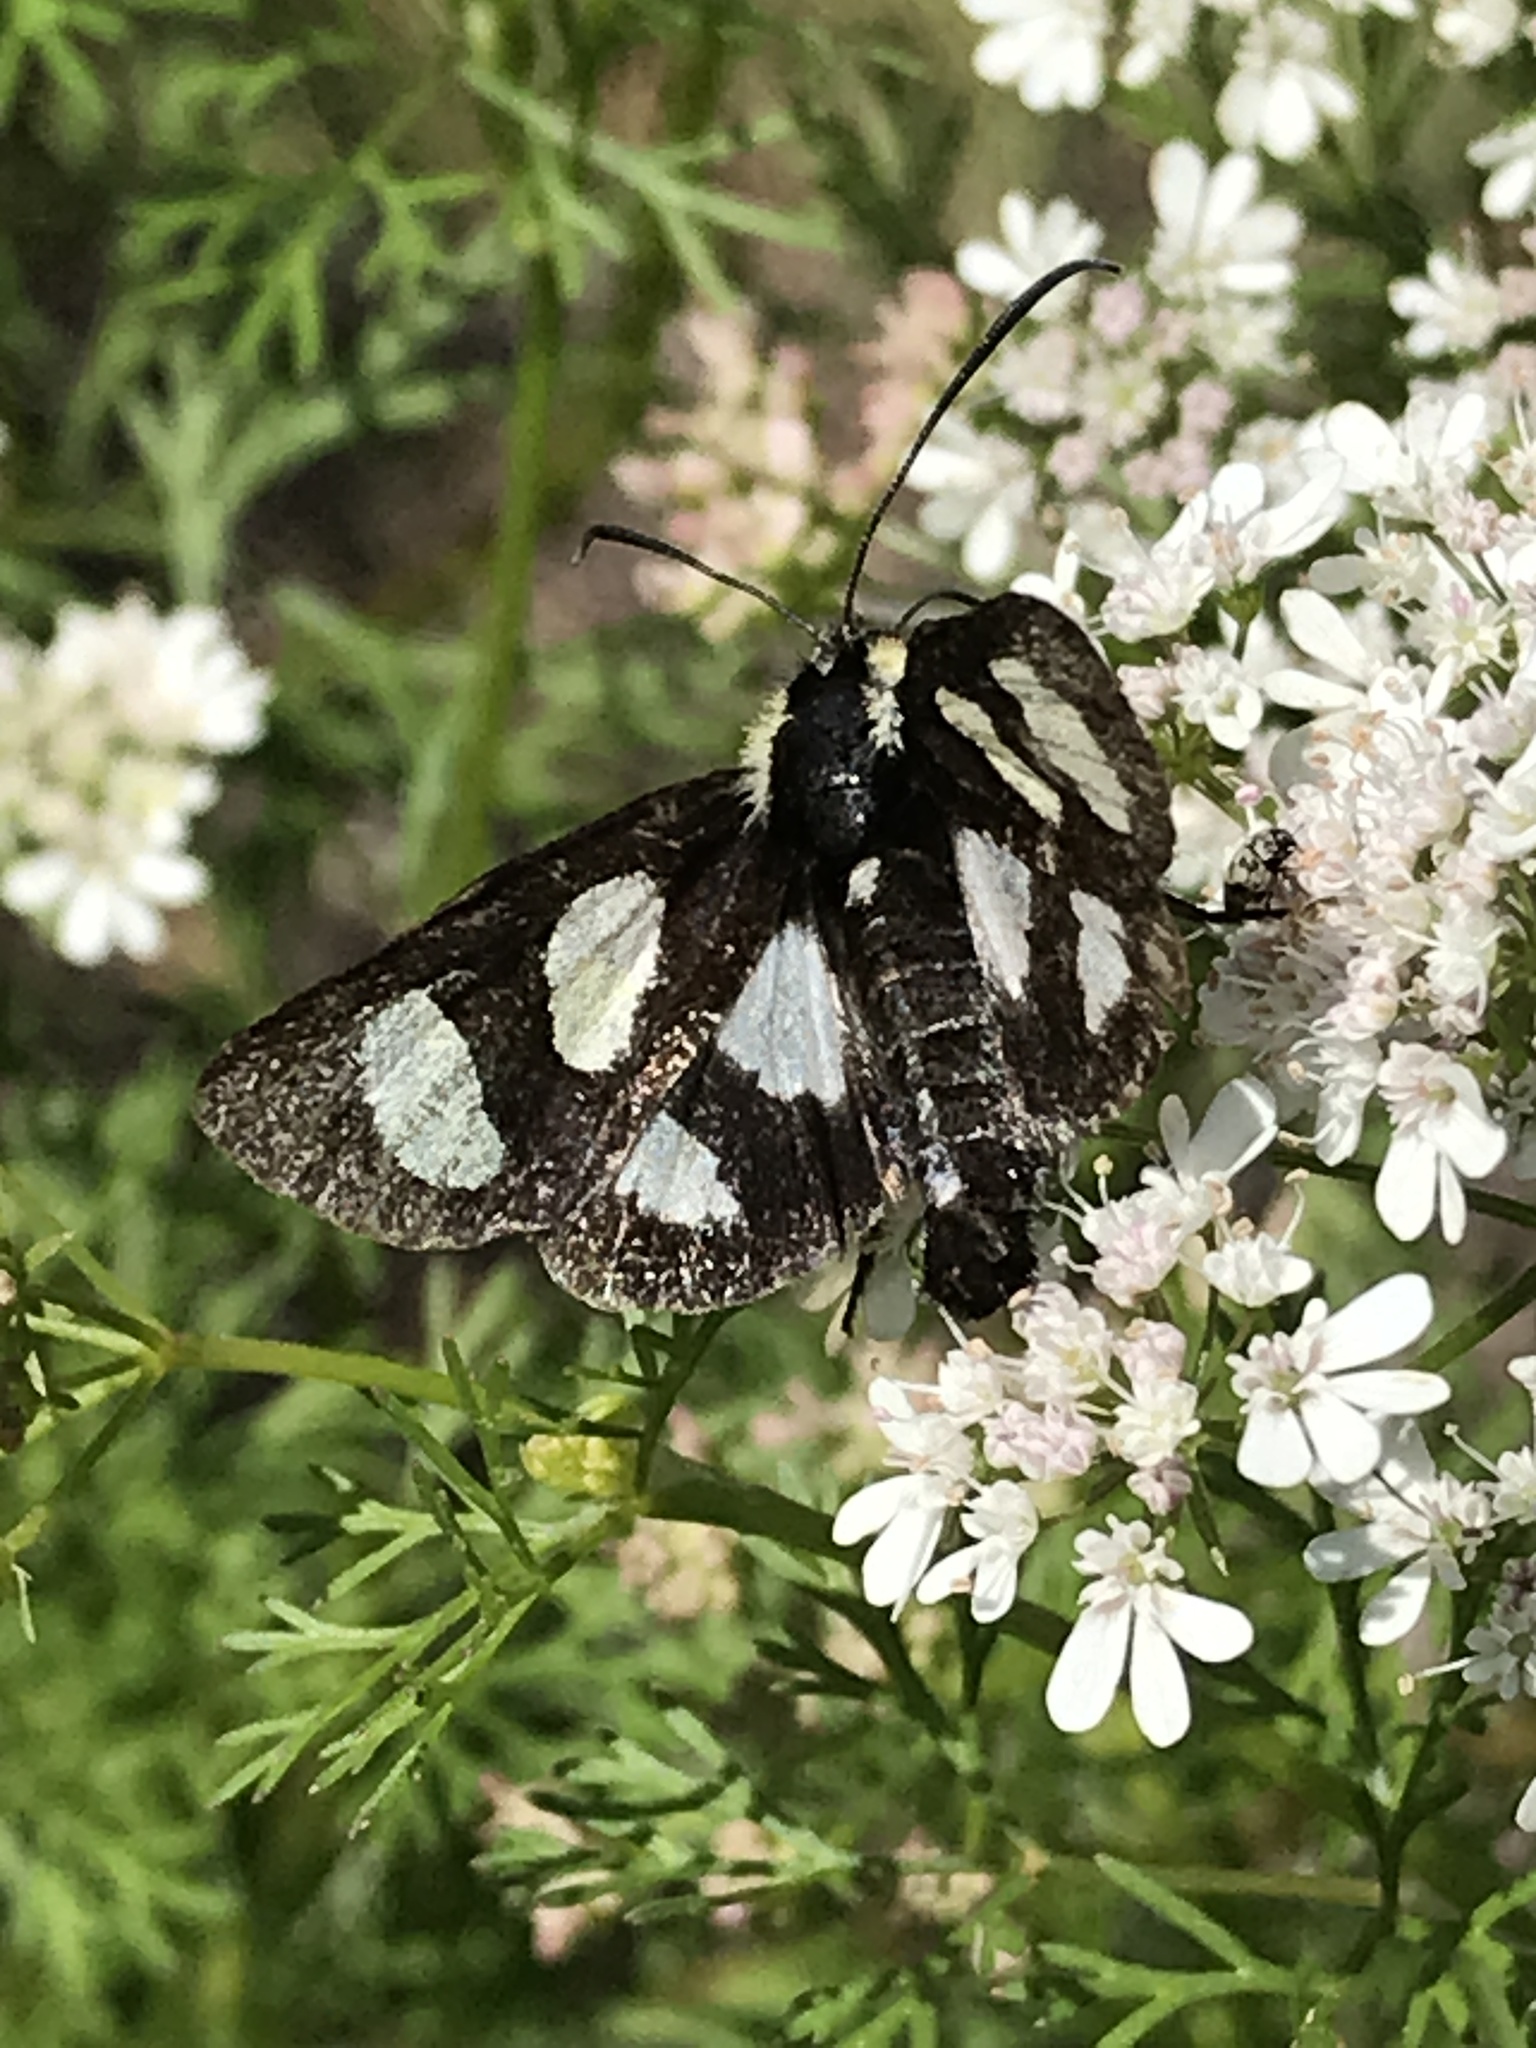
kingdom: Animalia
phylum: Arthropoda
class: Insecta
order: Lepidoptera
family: Noctuidae
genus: Alypia
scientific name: Alypia octomaculata
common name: Eight-spotted forester
